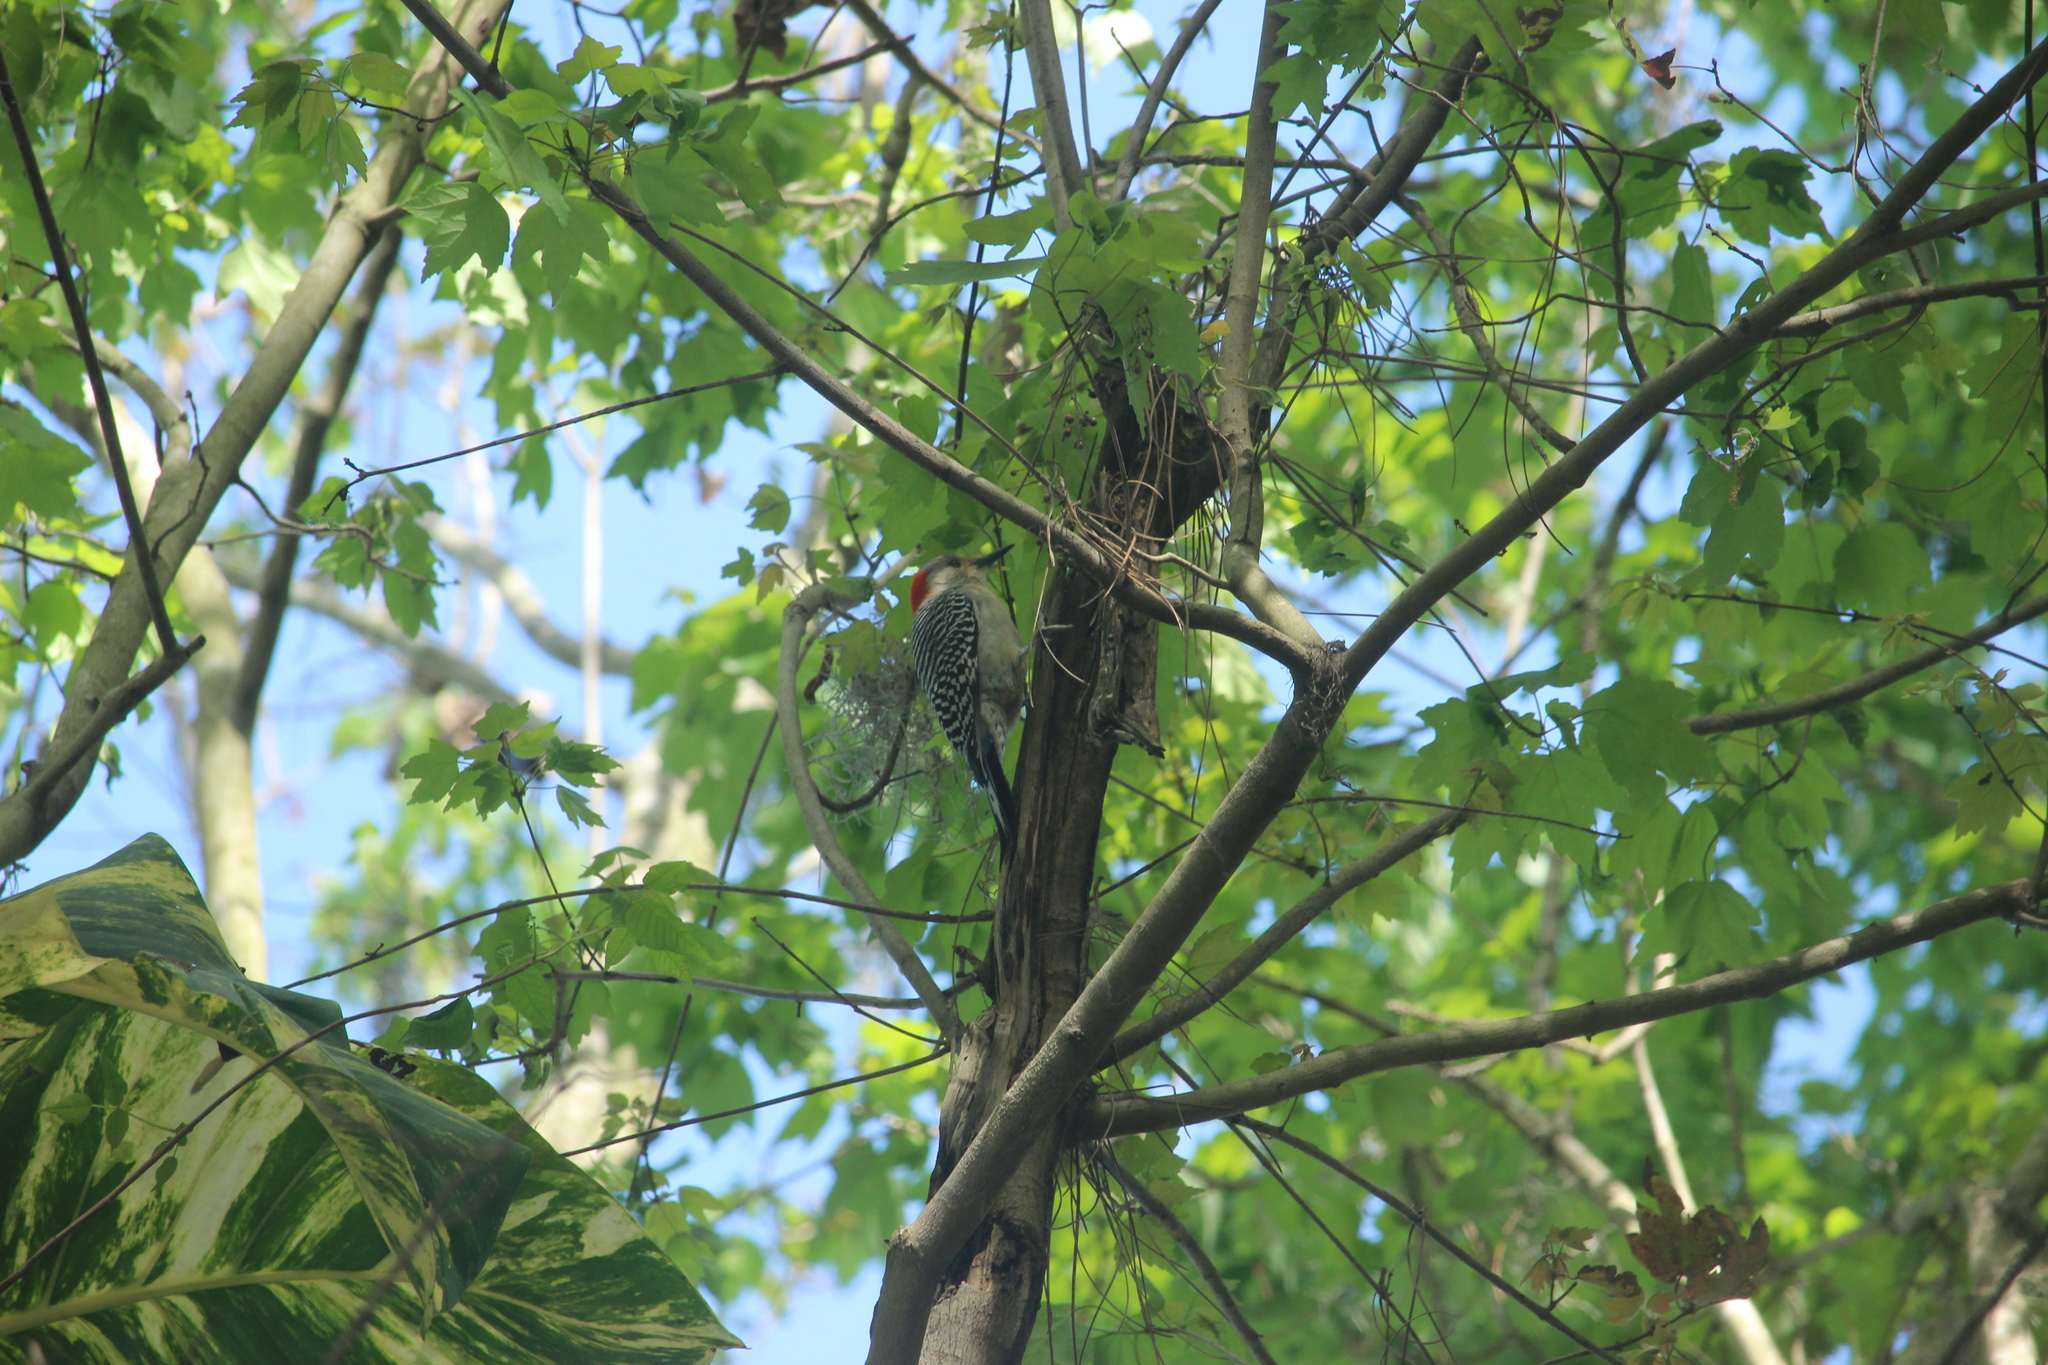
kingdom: Animalia
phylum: Chordata
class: Aves
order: Piciformes
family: Picidae
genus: Melanerpes
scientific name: Melanerpes carolinus
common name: Red-bellied woodpecker
